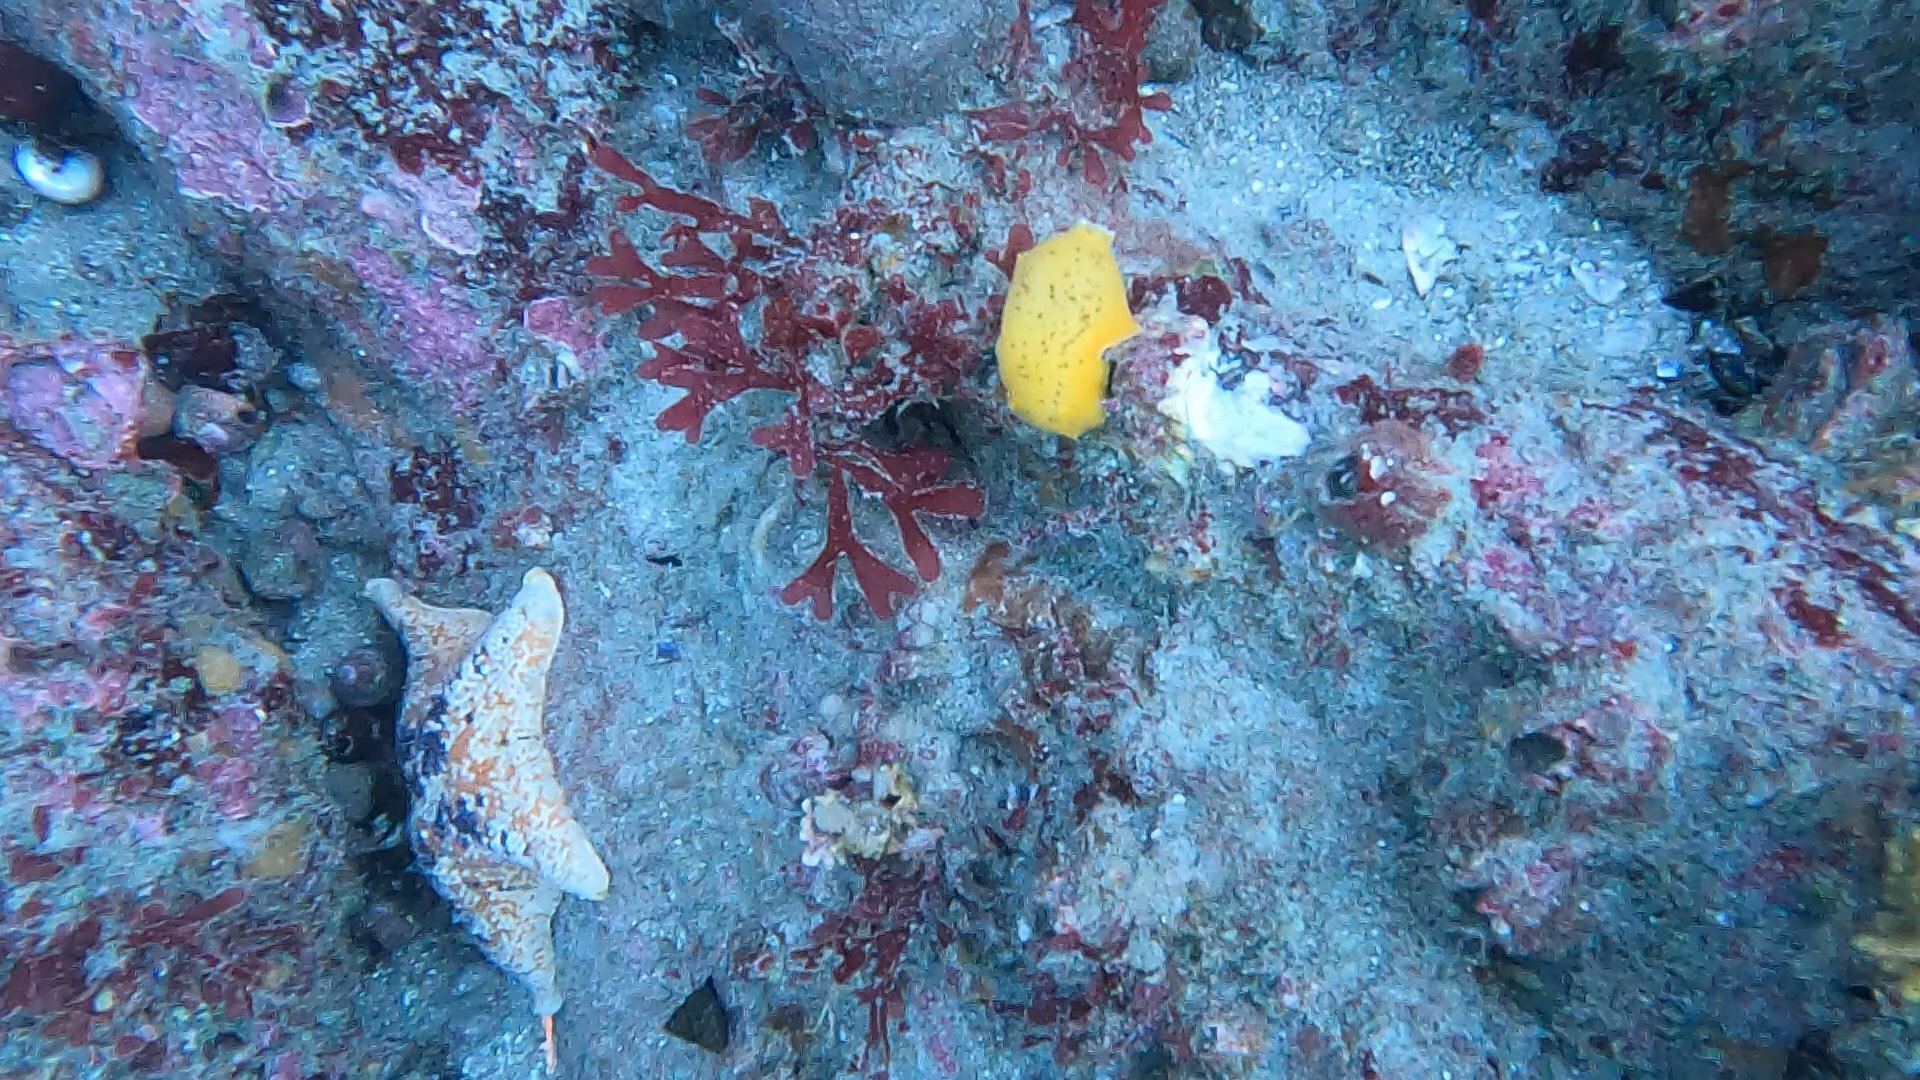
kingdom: Animalia
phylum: Mollusca
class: Gastropoda
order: Nudibranchia
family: Discodorididae
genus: Peltodoris
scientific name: Peltodoris nobilis
